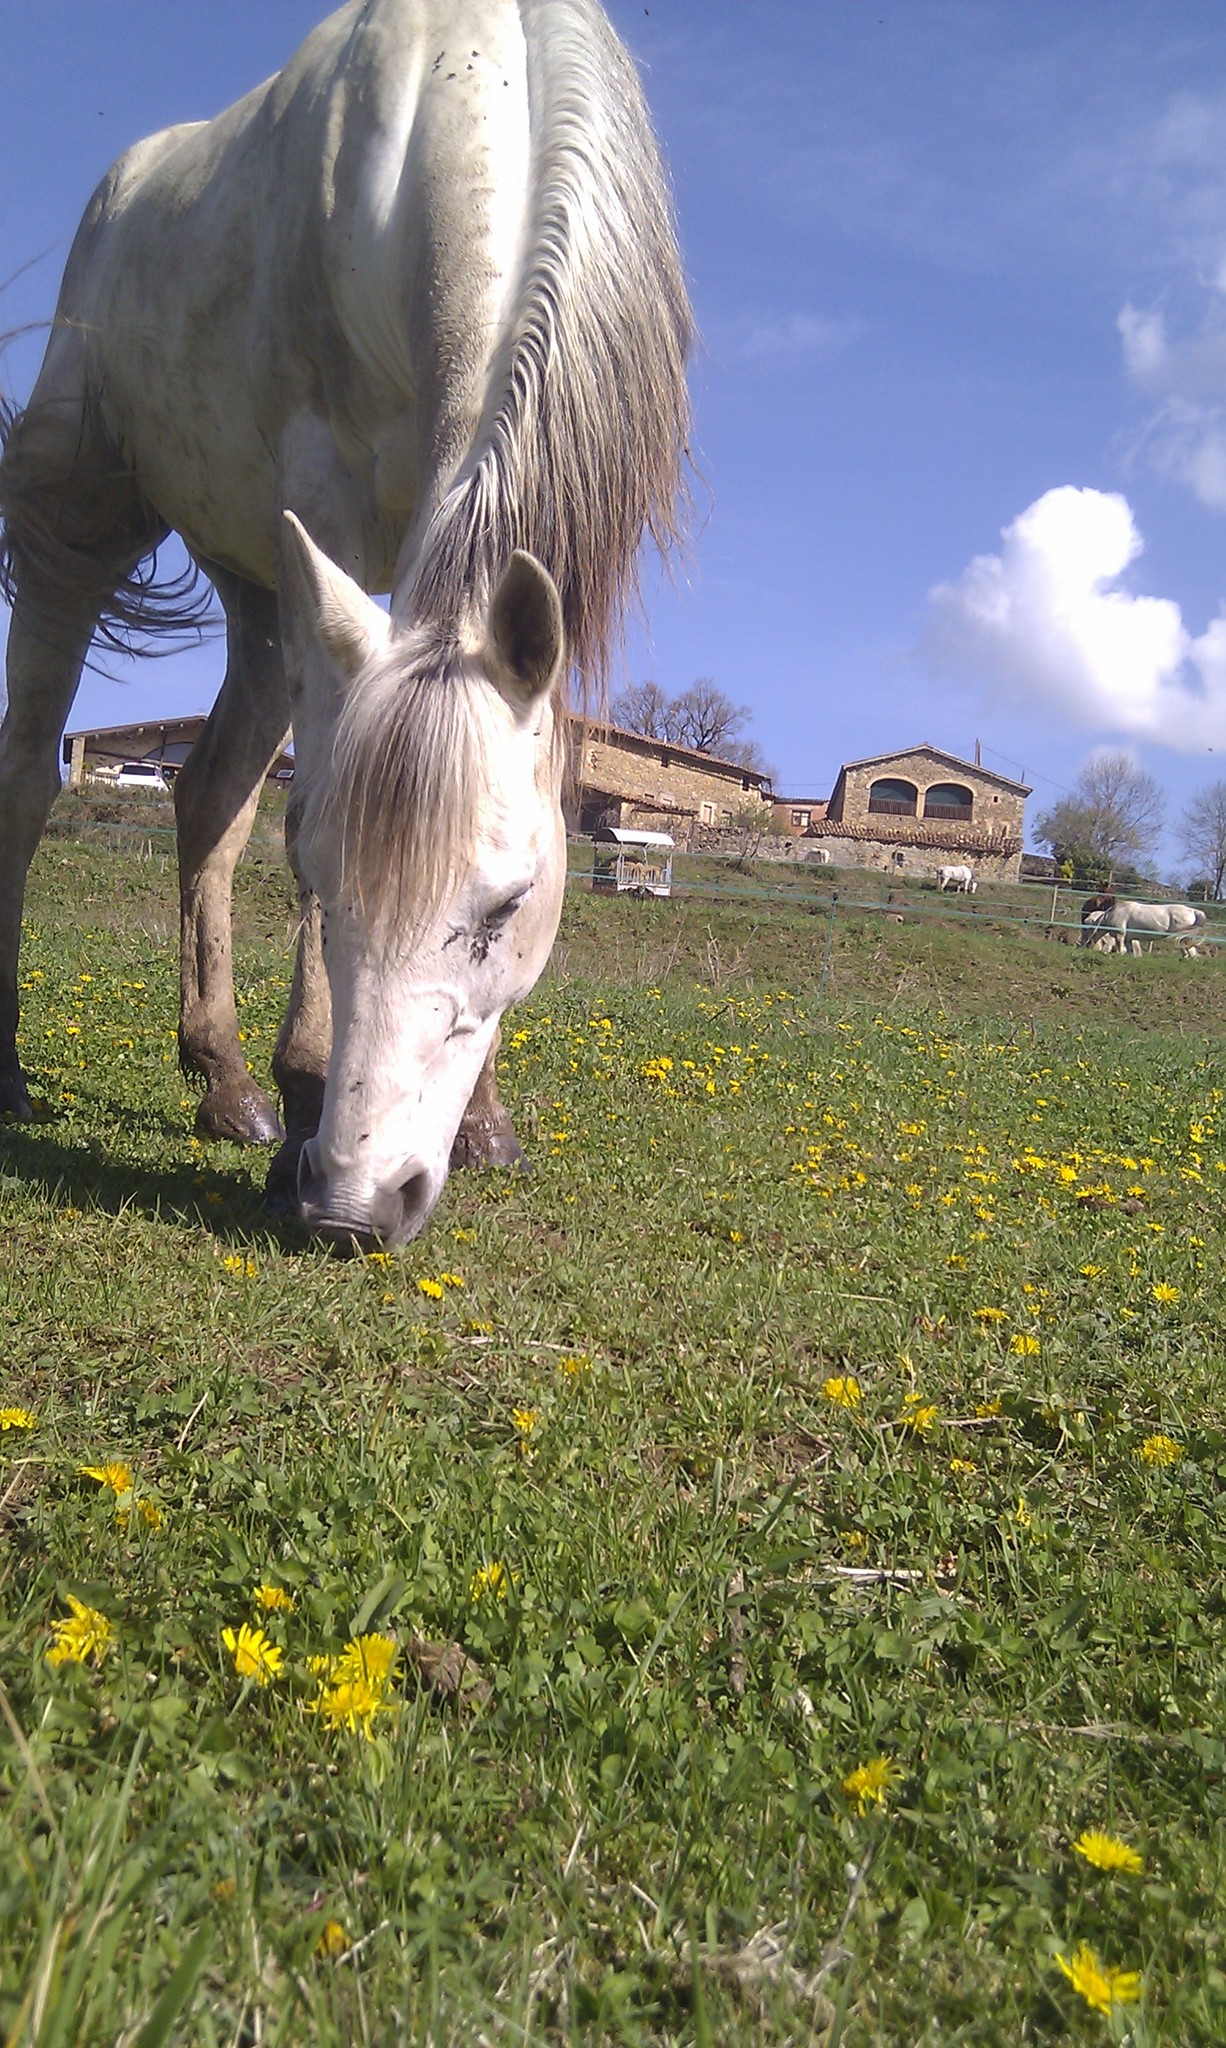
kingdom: Animalia
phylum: Chordata
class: Mammalia
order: Perissodactyla
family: Equidae
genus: Equus
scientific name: Equus caballus
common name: Horse
